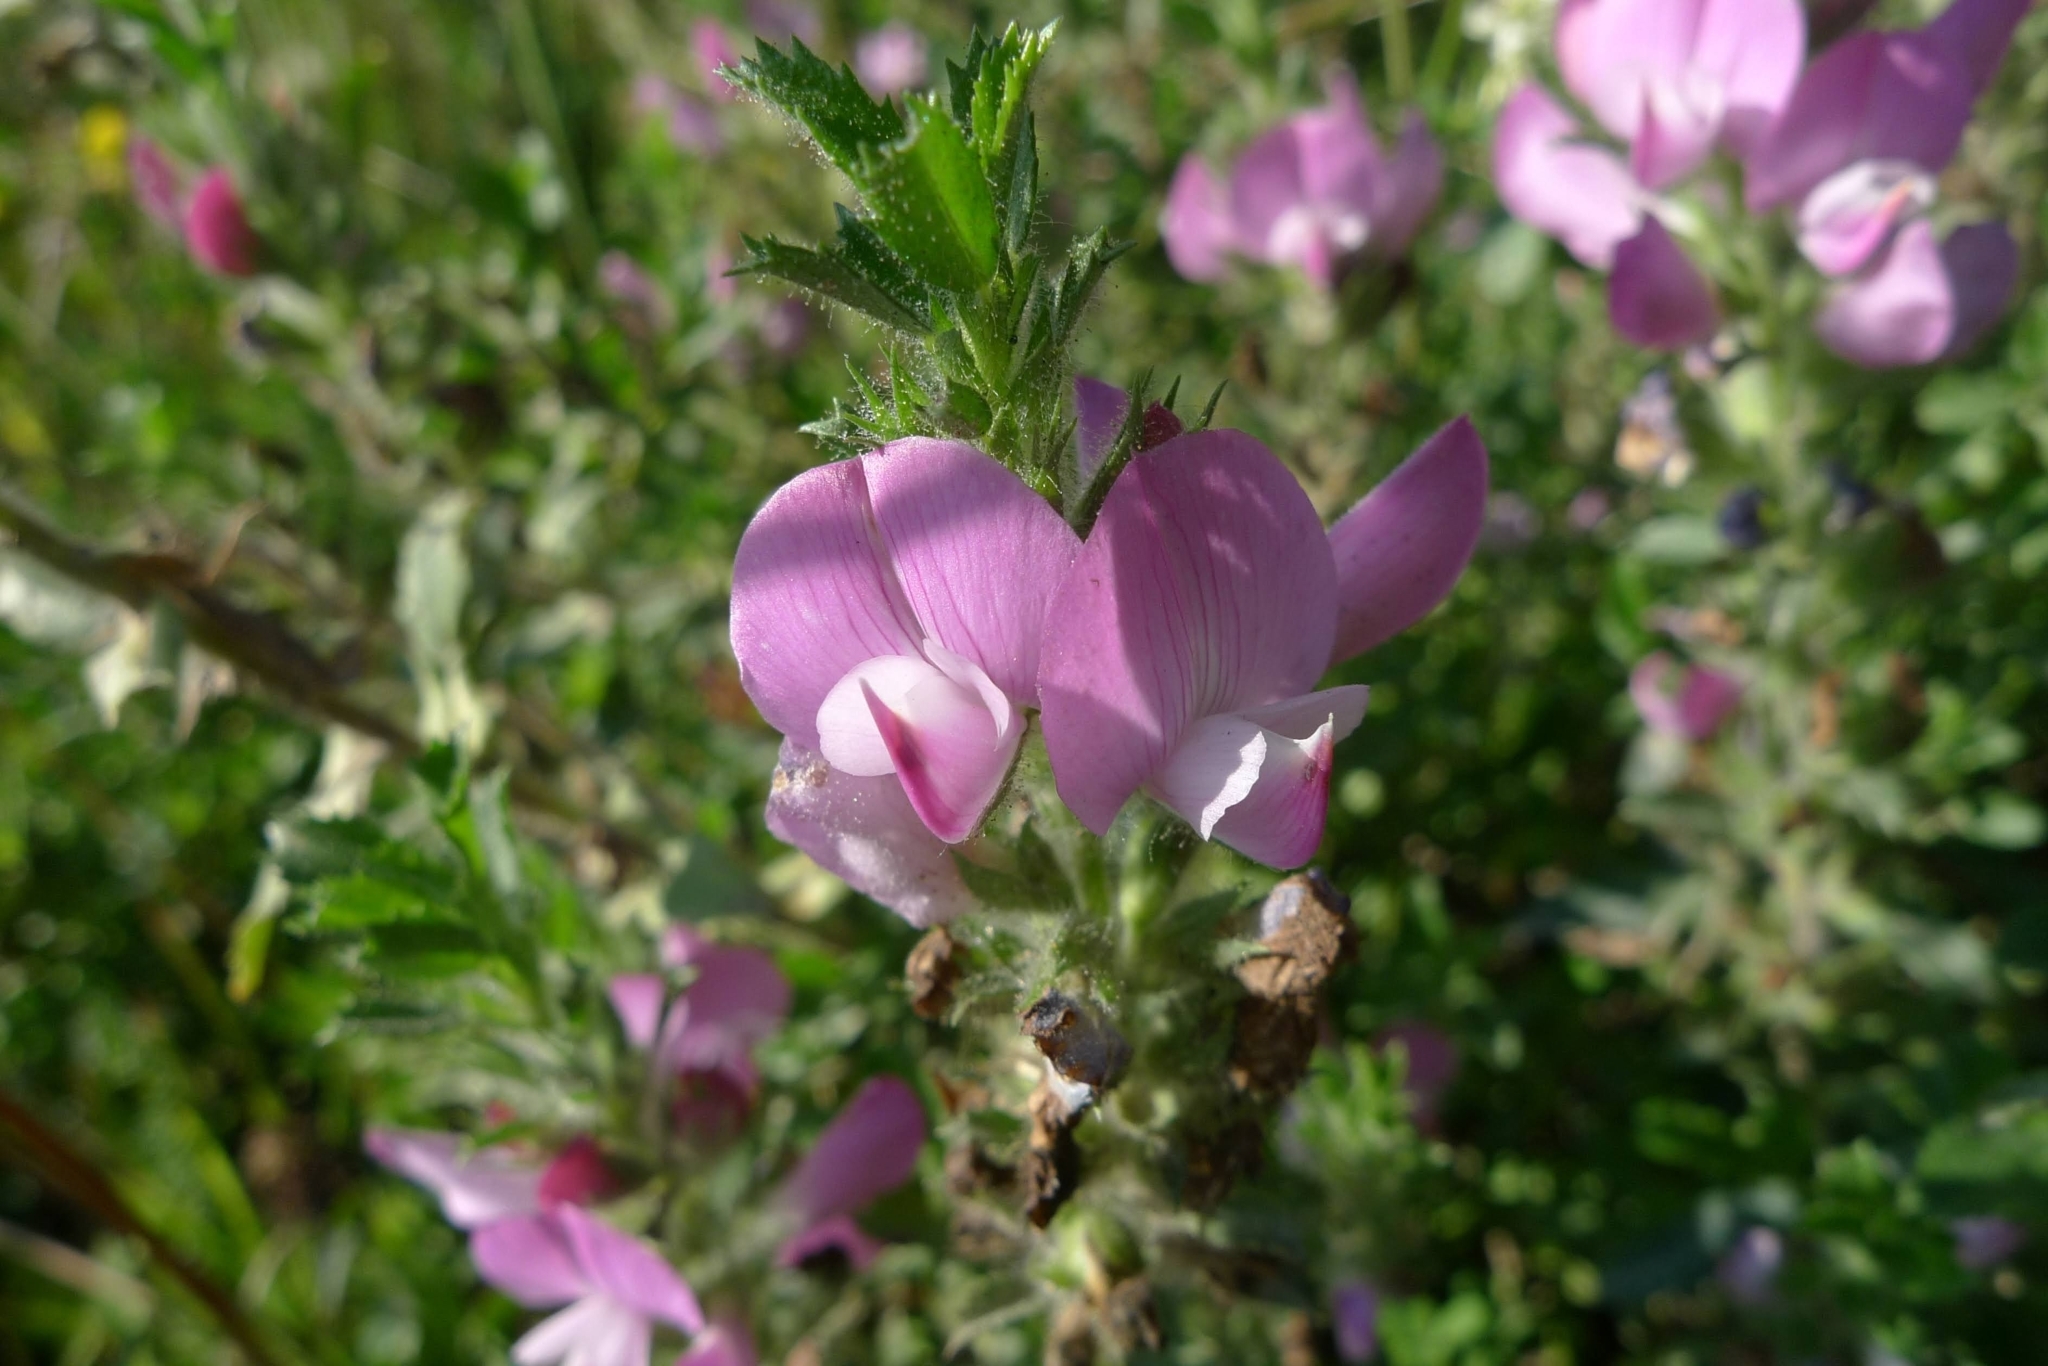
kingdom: Plantae
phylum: Tracheophyta
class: Magnoliopsida
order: Fabales
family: Fabaceae
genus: Ononis
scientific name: Ononis arvensis
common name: Field restharrow
